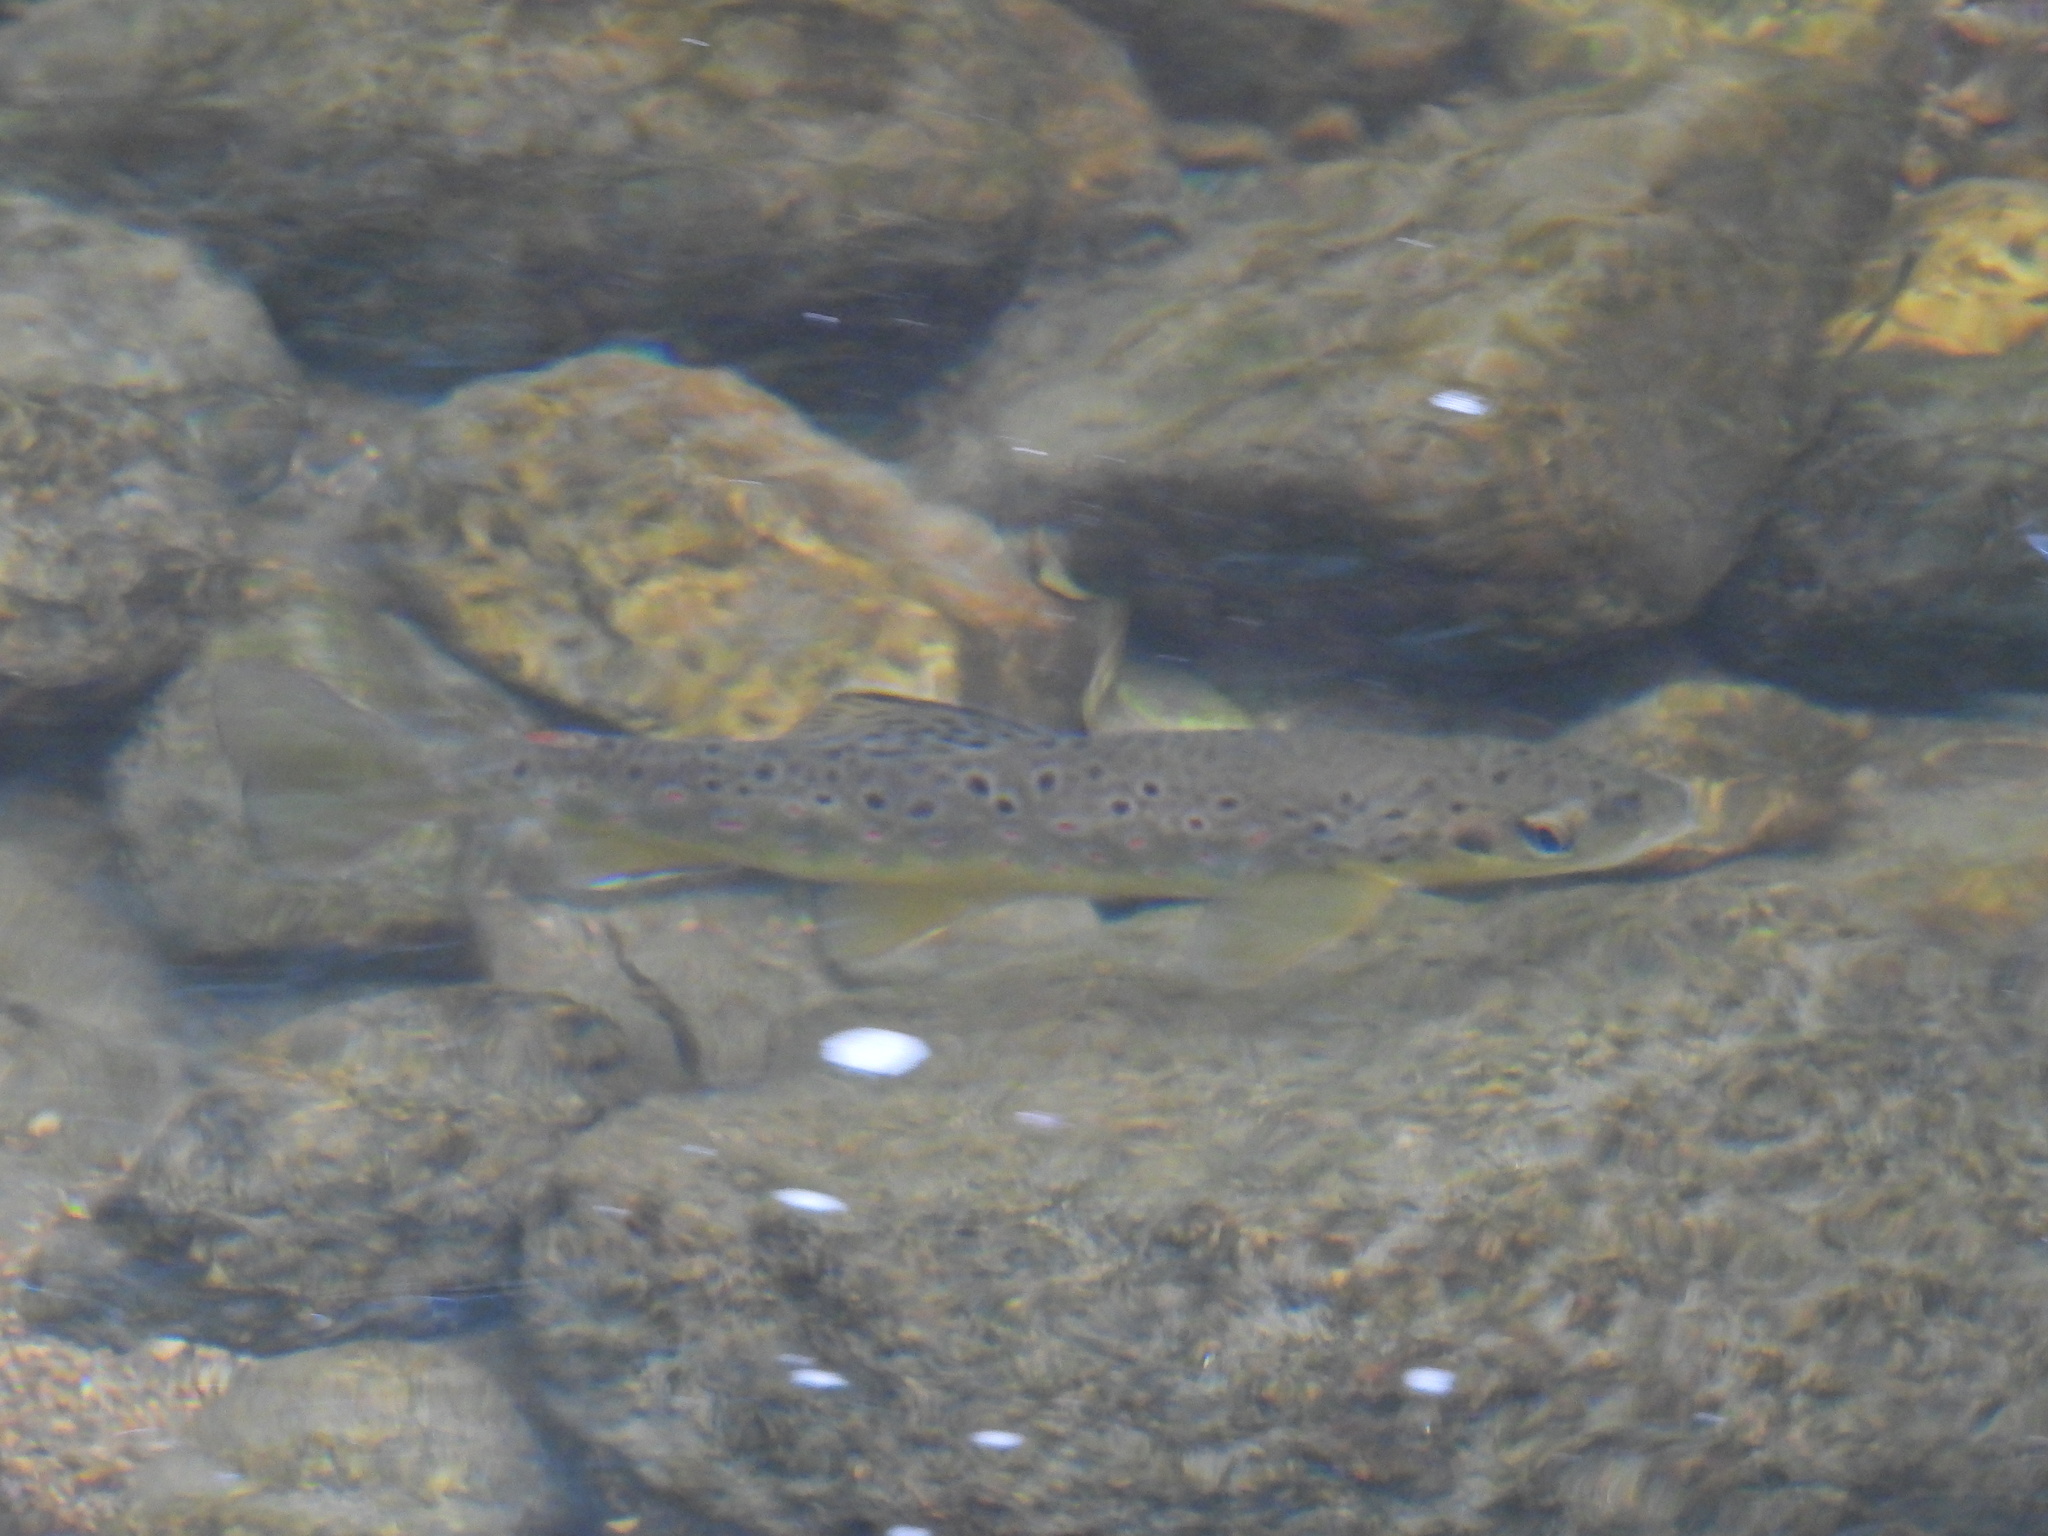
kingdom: Animalia
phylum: Chordata
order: Salmoniformes
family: Salmonidae
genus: Salmo
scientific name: Salmo trutta
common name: Brown trout
